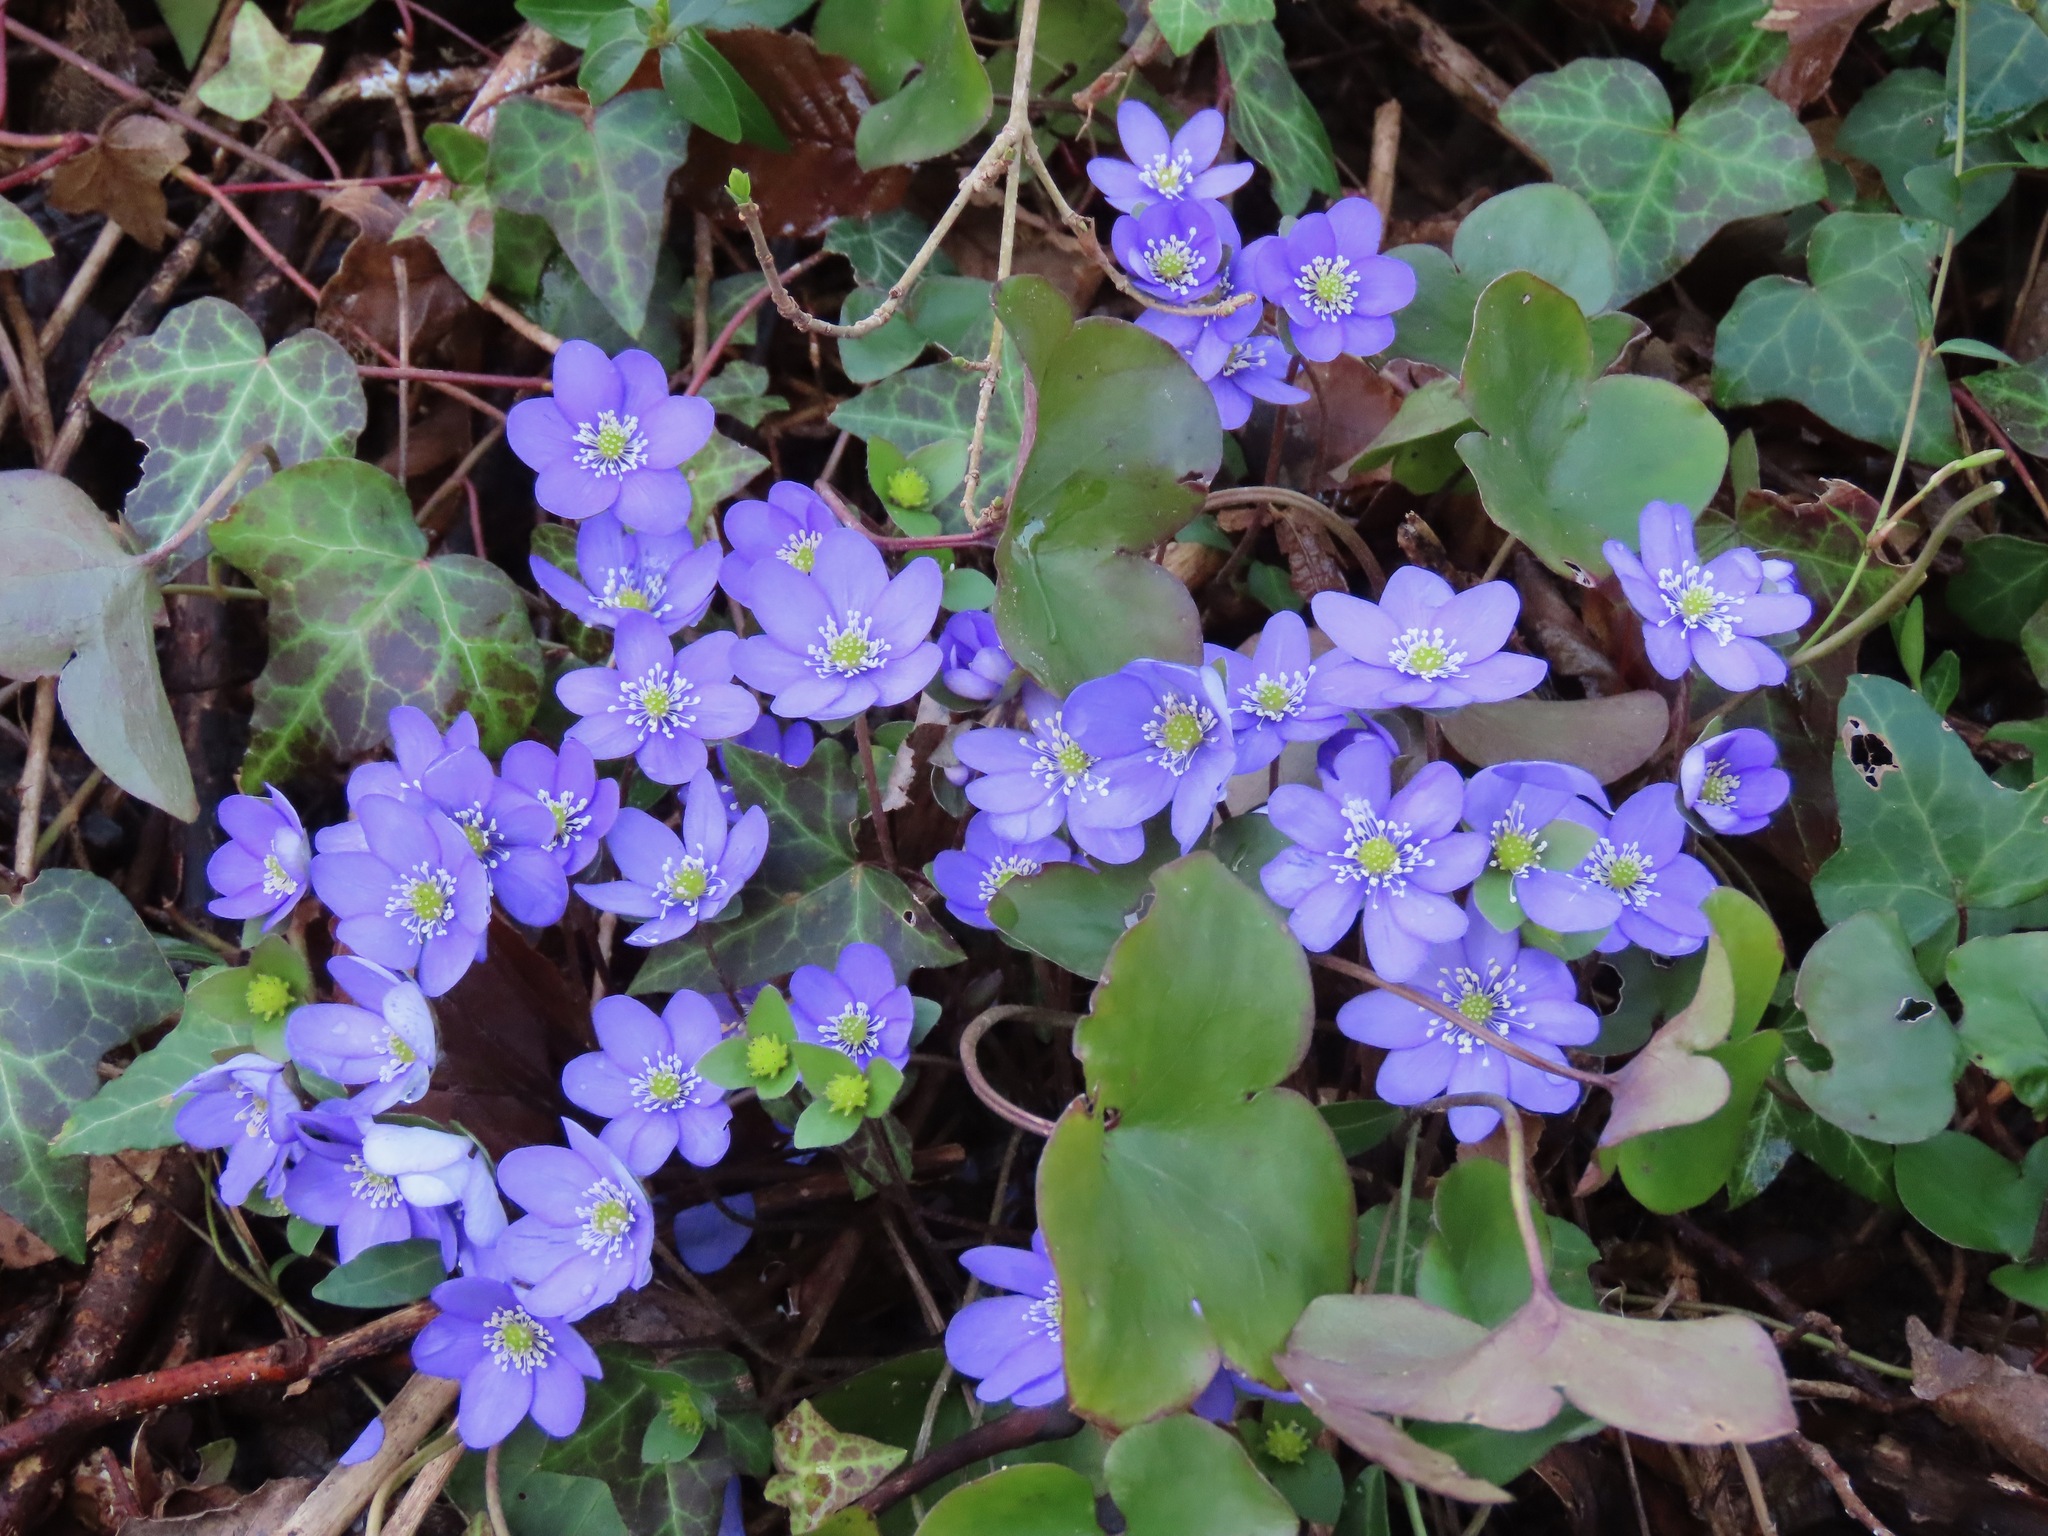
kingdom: Plantae
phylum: Tracheophyta
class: Magnoliopsida
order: Ranunculales
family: Ranunculaceae
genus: Hepatica
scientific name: Hepatica nobilis
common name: Liverleaf
